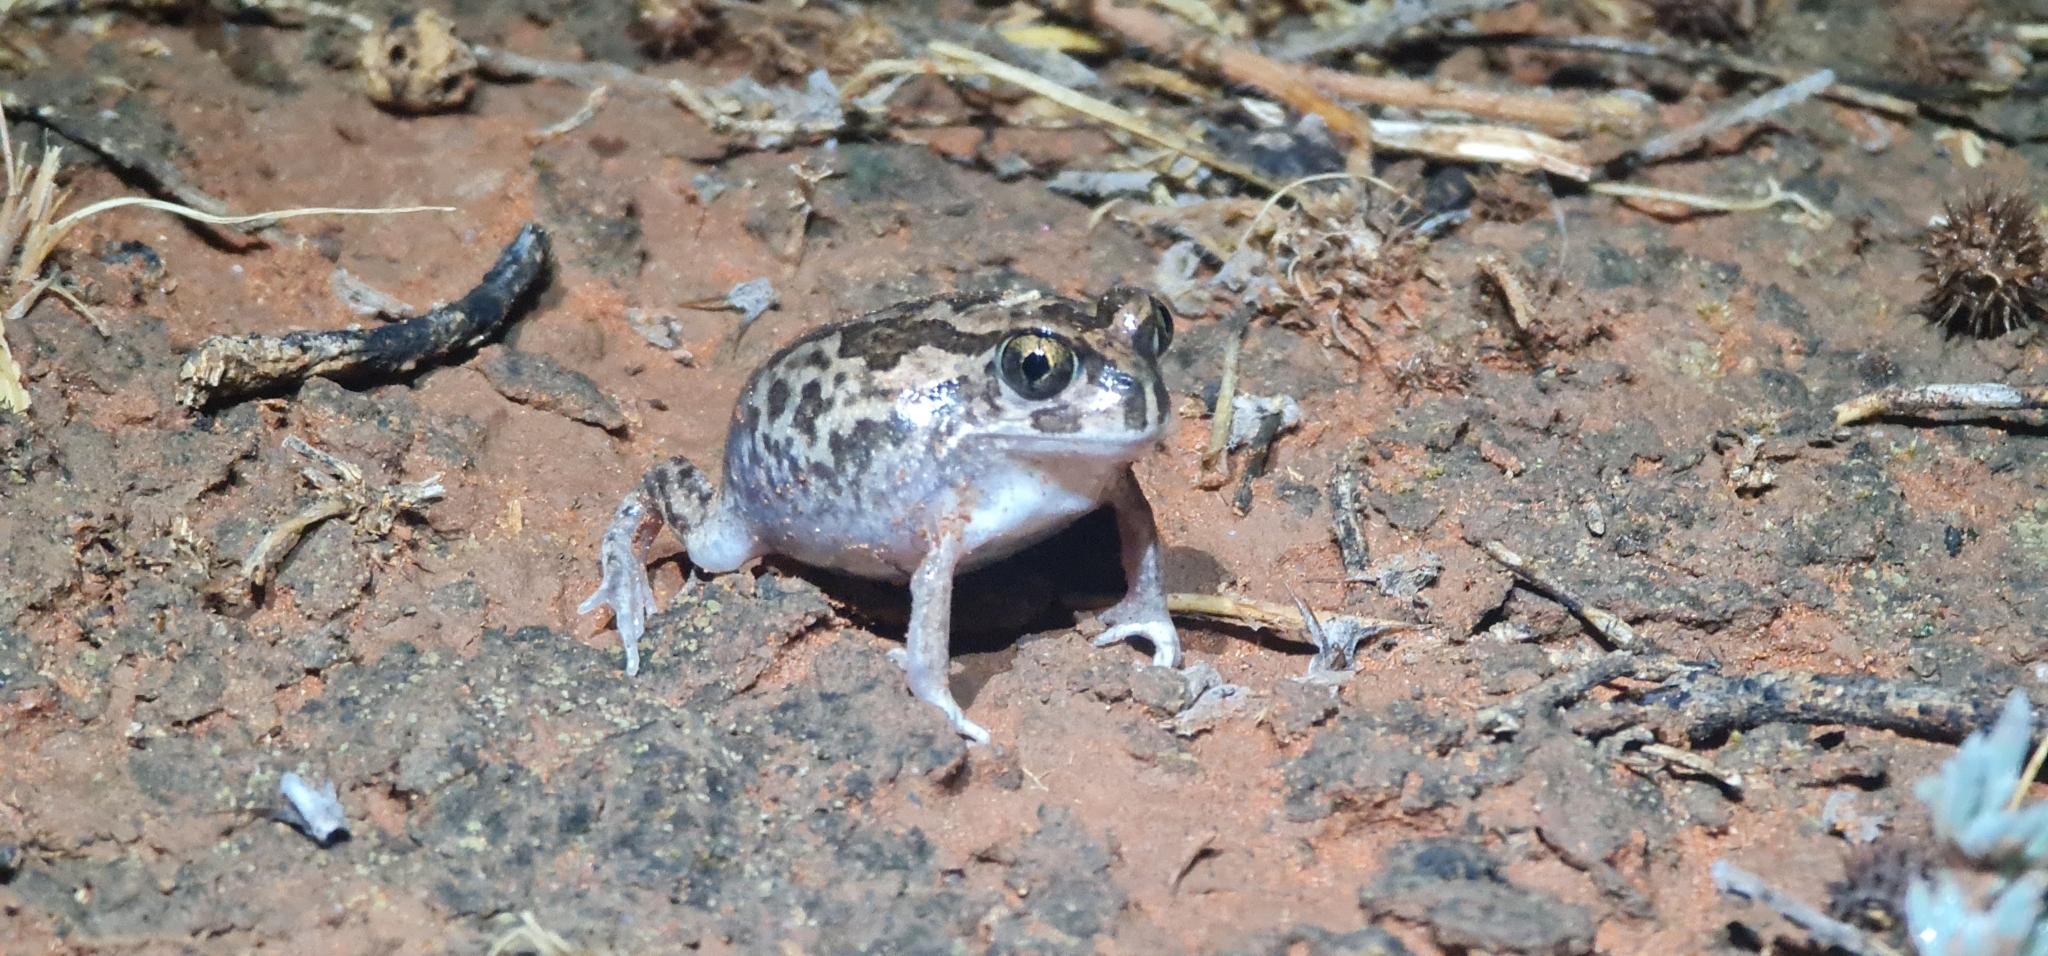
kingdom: Animalia
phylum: Chordata
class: Amphibia
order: Anura
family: Limnodynastidae
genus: Neobatrachus
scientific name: Neobatrachus sudelli
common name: Common spadefoot toad
